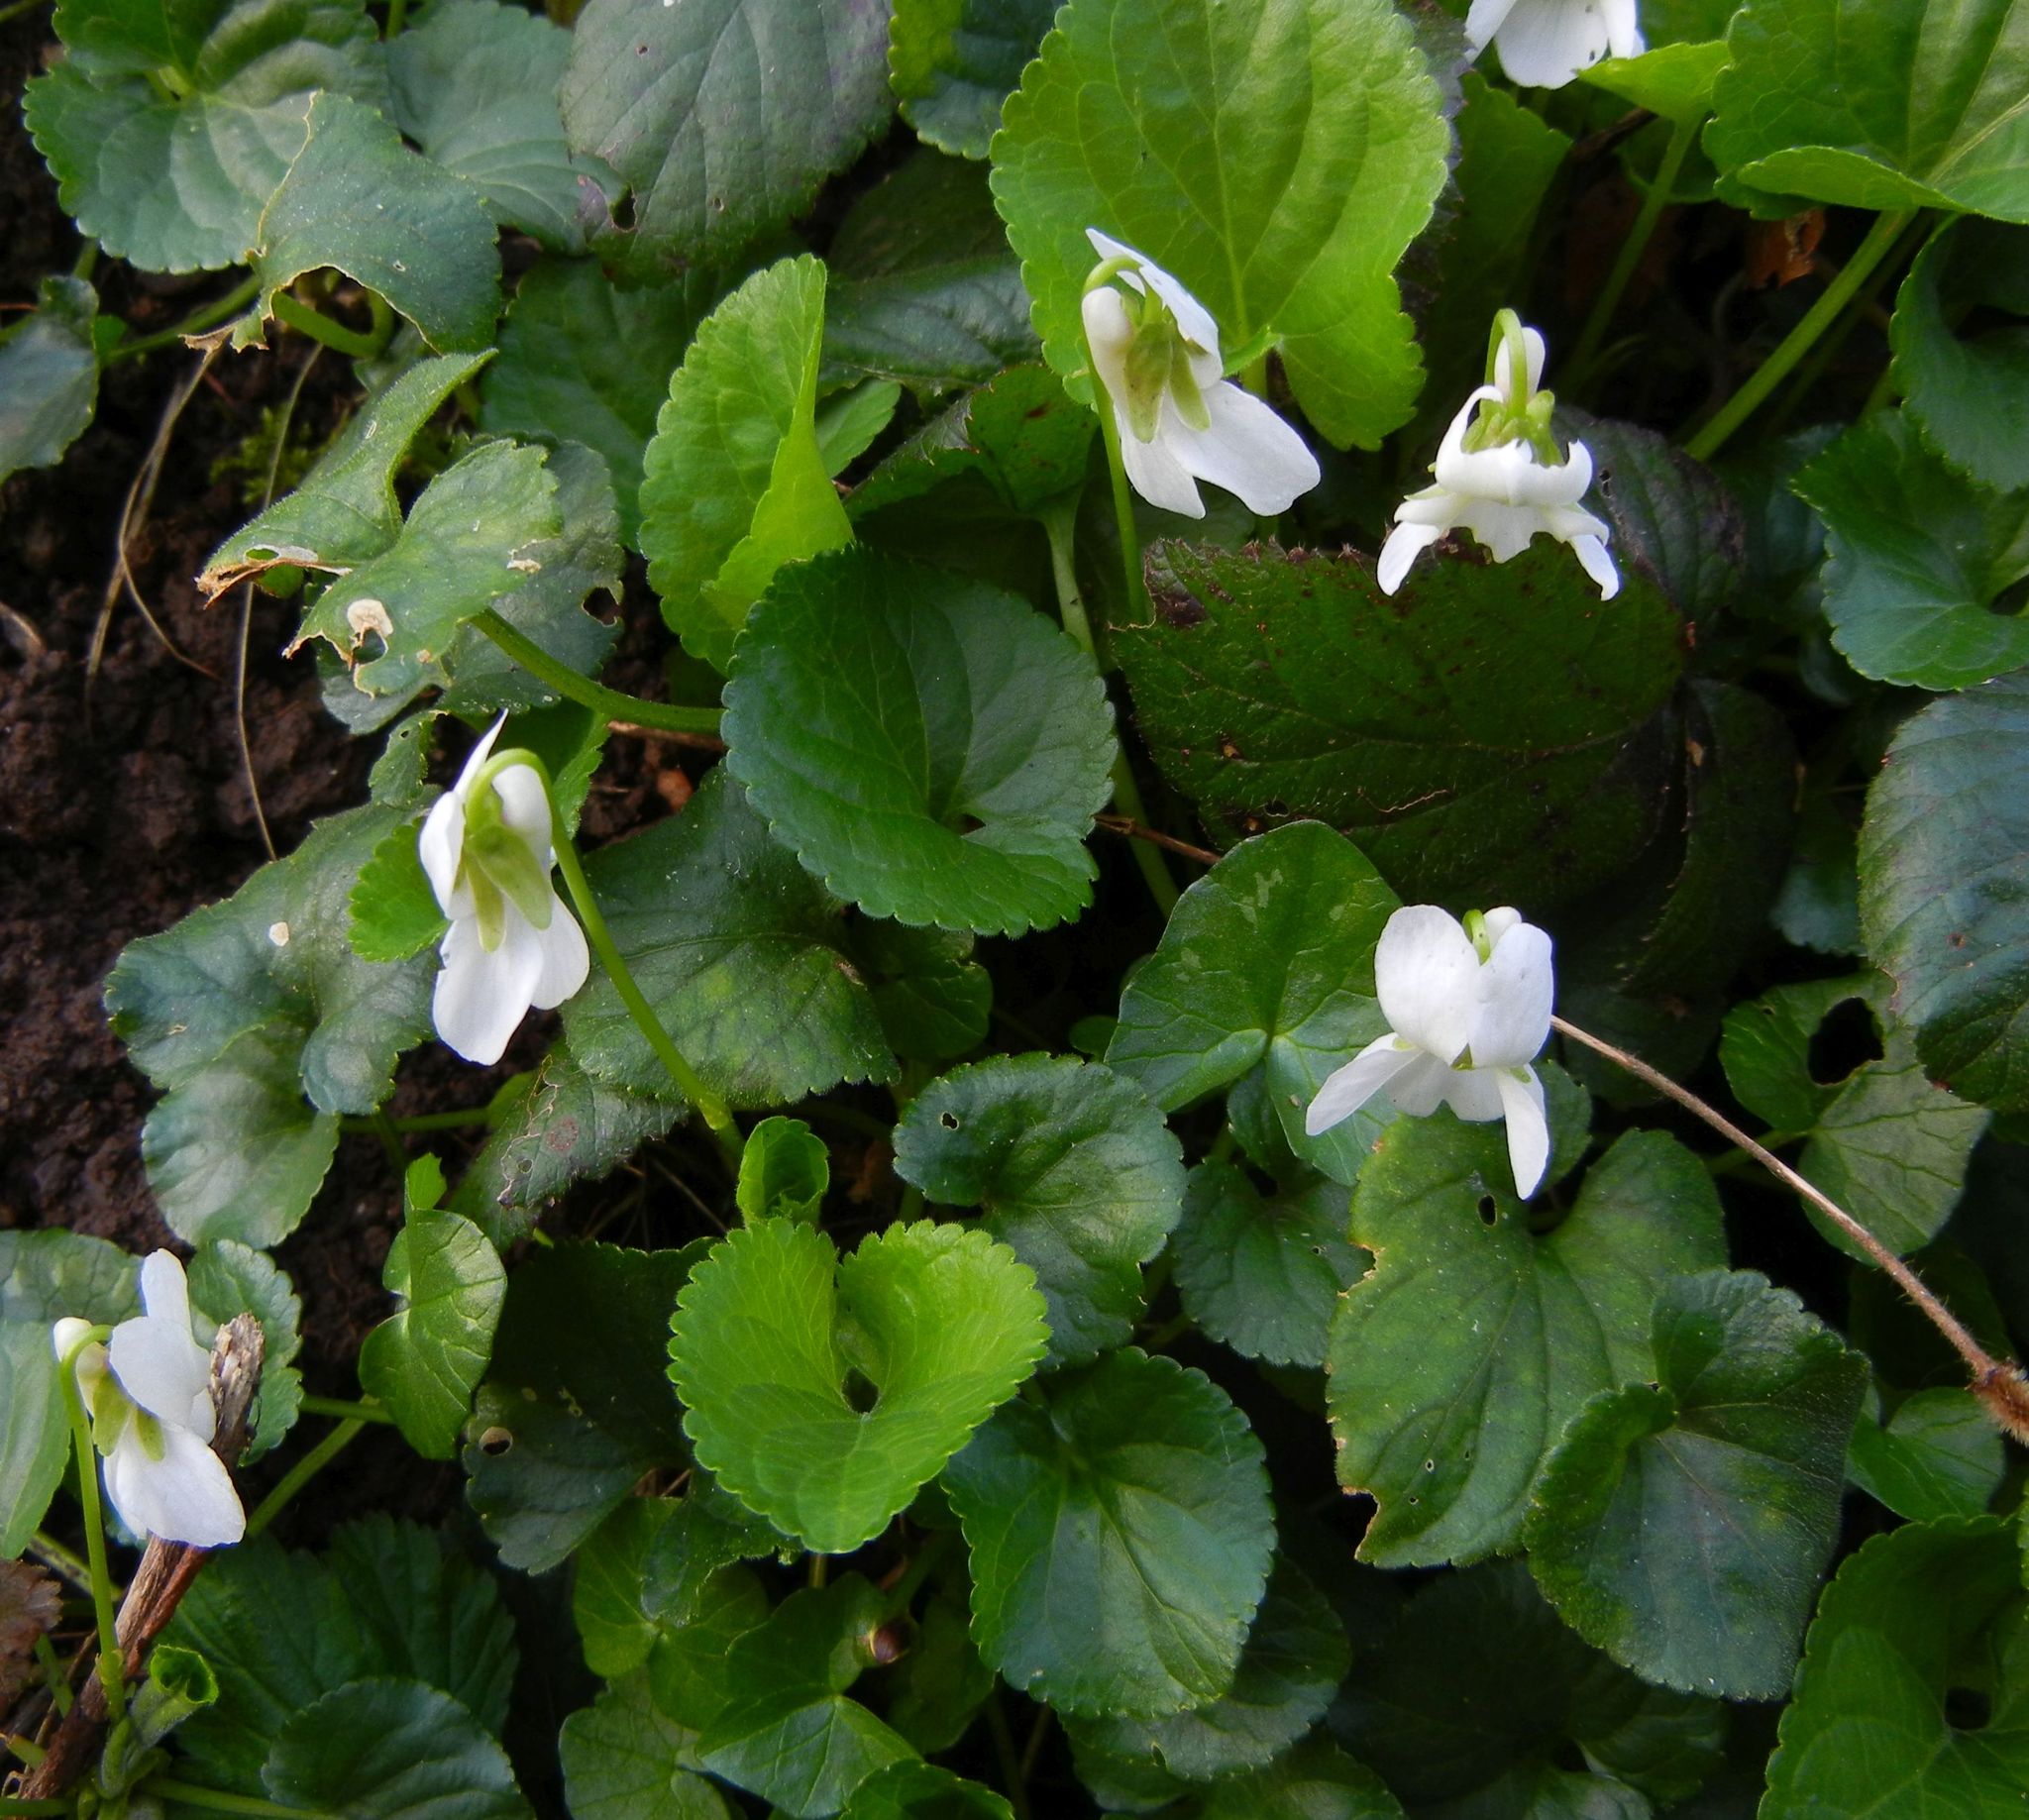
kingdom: Plantae
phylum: Tracheophyta
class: Magnoliopsida
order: Malpighiales
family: Violaceae
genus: Viola
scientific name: Viola odorata
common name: Sweet violet
